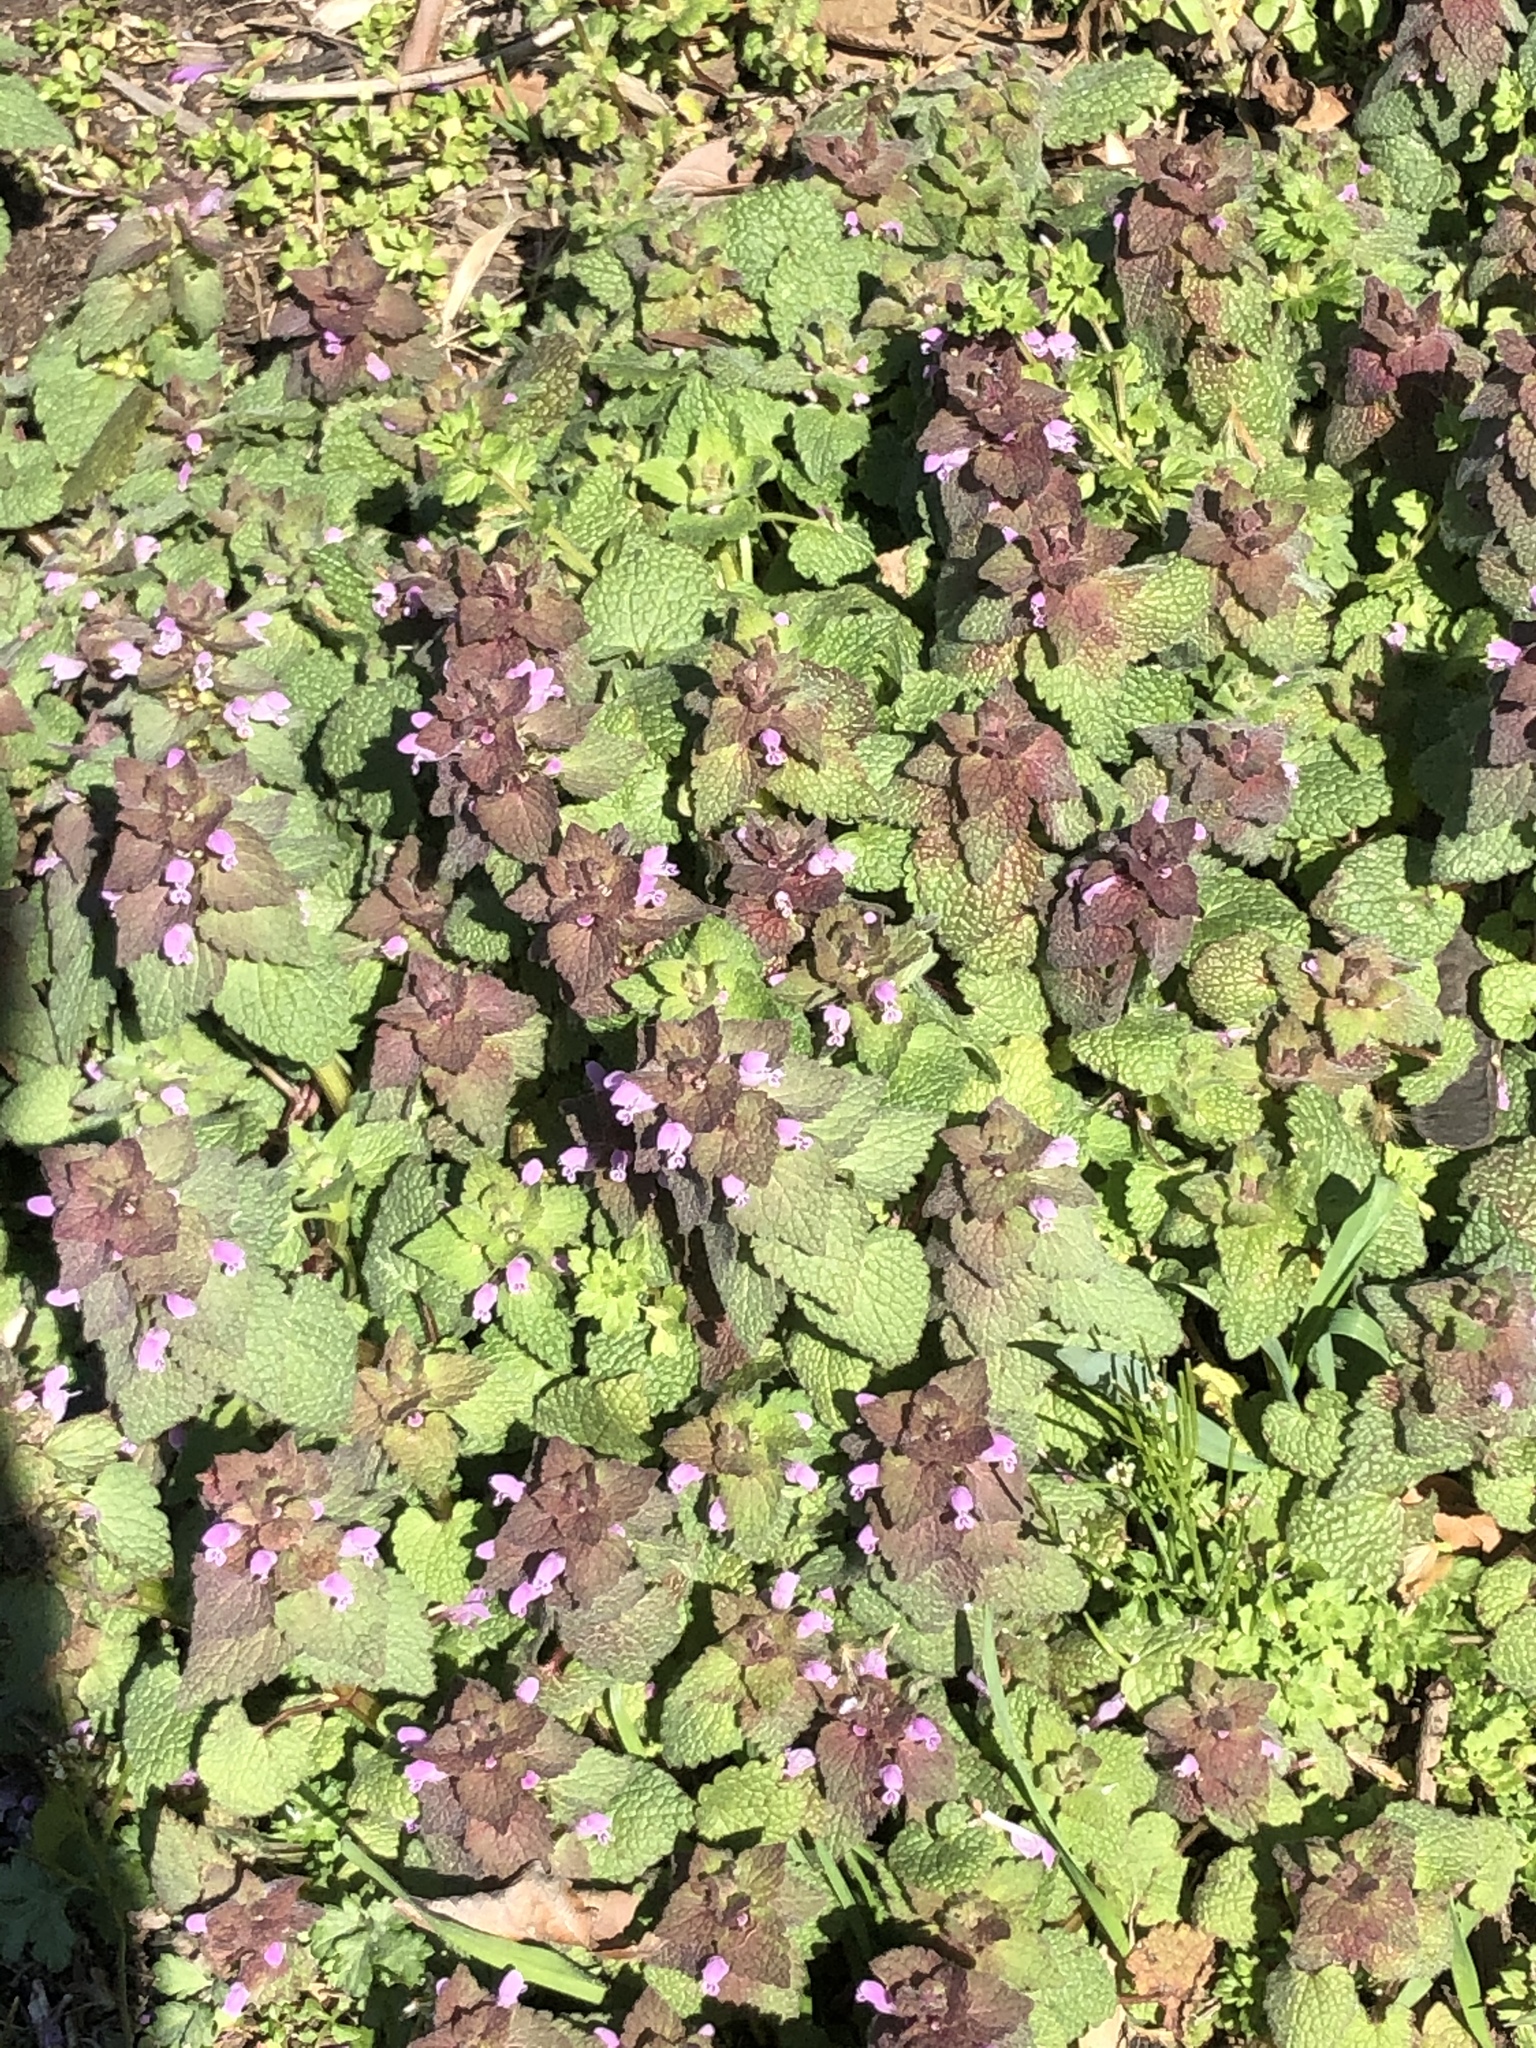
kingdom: Plantae
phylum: Tracheophyta
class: Magnoliopsida
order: Lamiales
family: Lamiaceae
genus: Lamium
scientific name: Lamium purpureum
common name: Red dead-nettle
